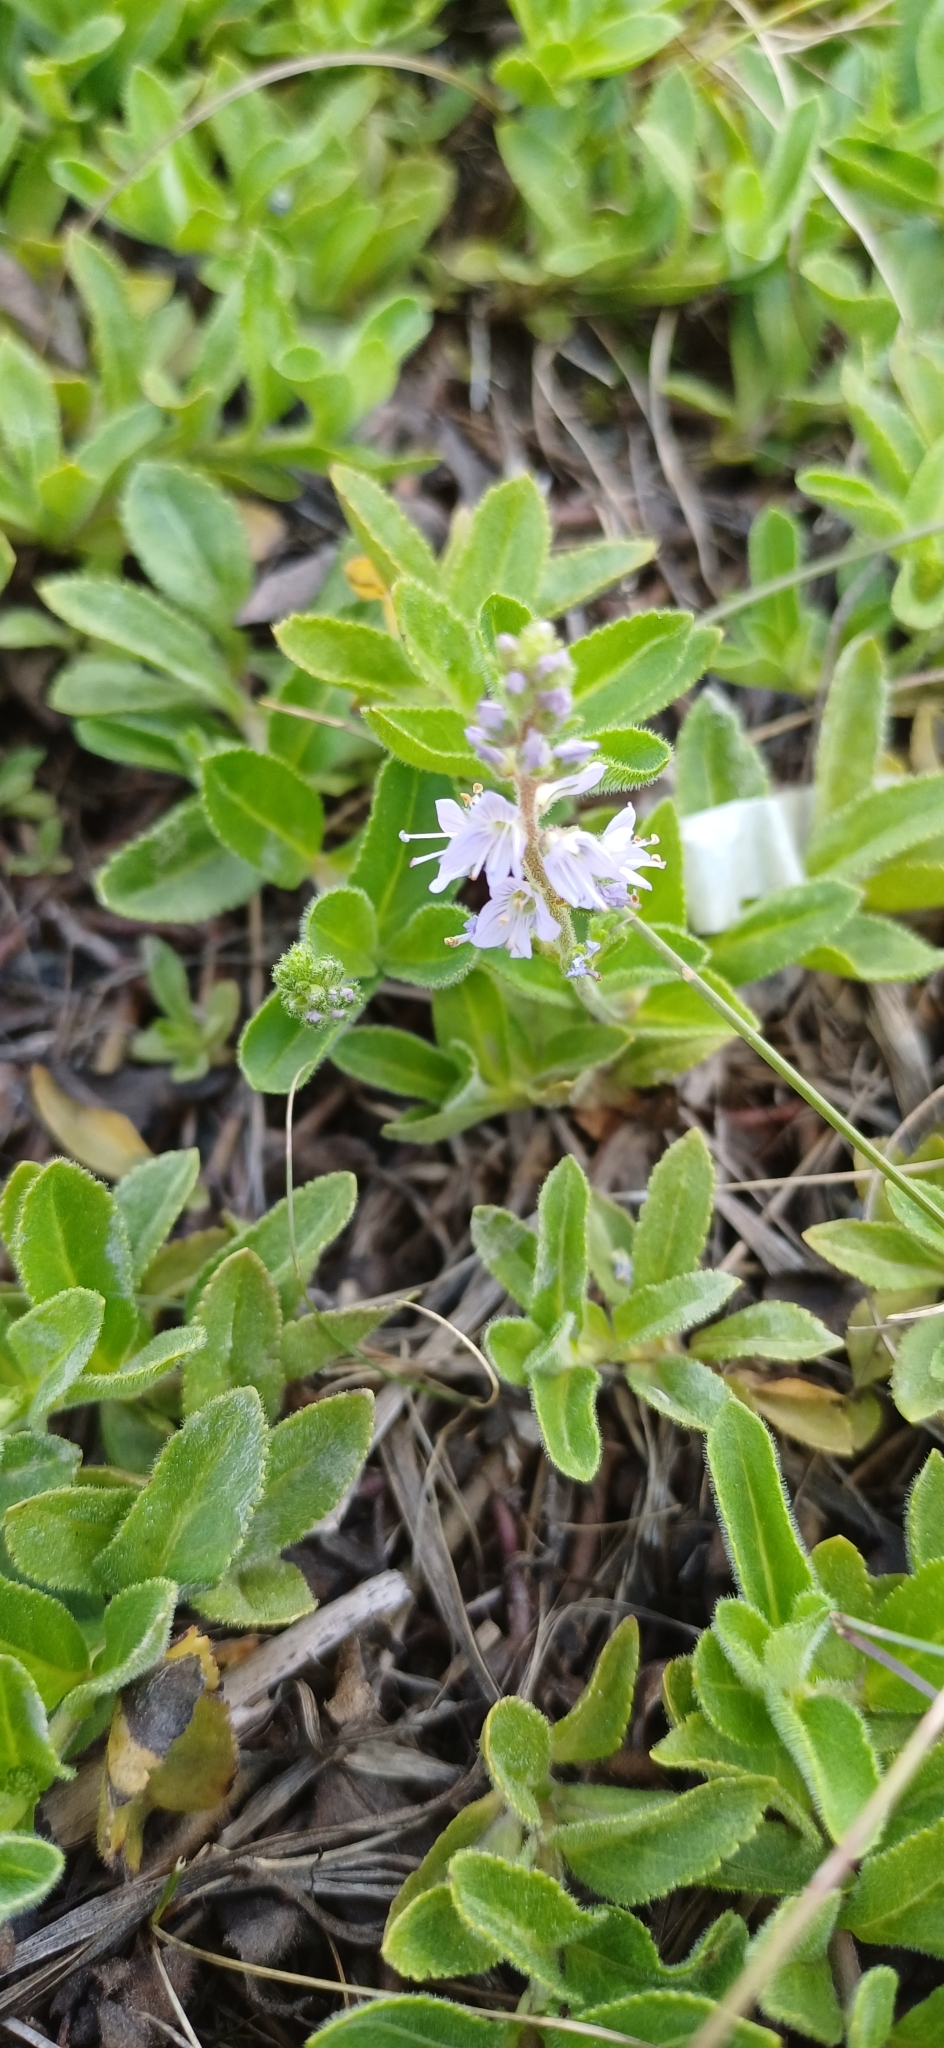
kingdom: Plantae
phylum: Tracheophyta
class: Magnoliopsida
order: Lamiales
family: Plantaginaceae
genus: Veronica
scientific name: Veronica officinalis
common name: Common speedwell
